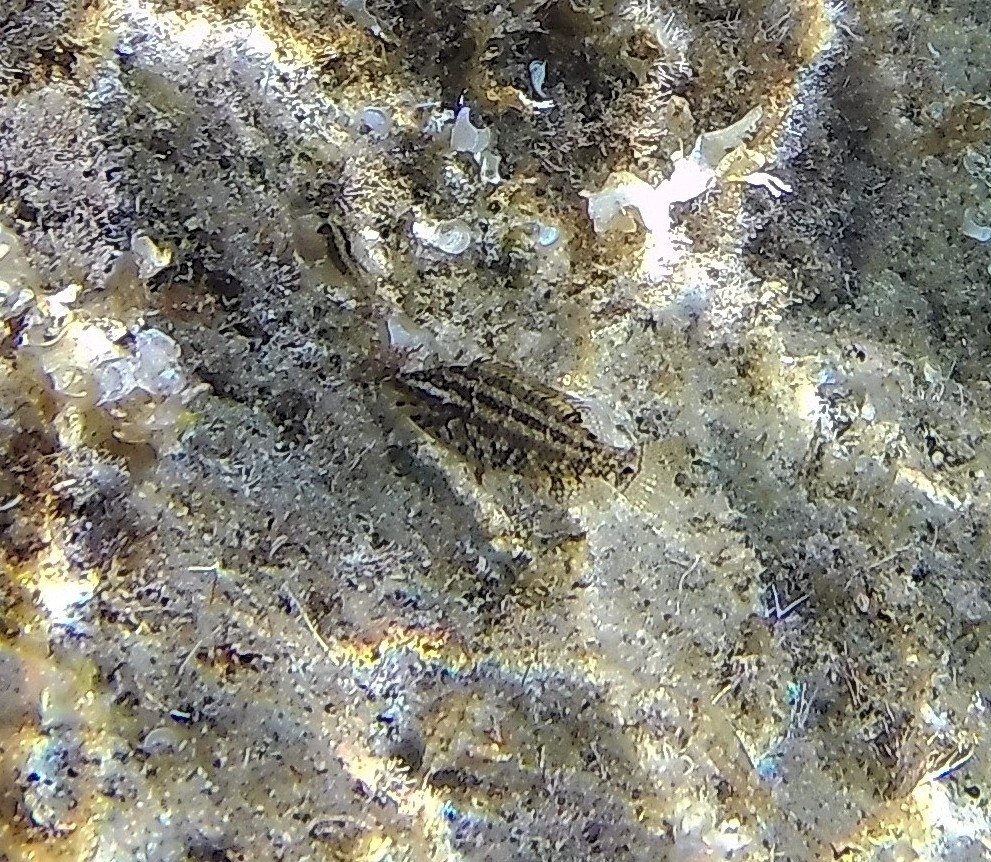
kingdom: Animalia
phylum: Chordata
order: Perciformes
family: Labridae
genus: Symphodus
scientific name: Symphodus roissali
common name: Five-spotted wrasse
